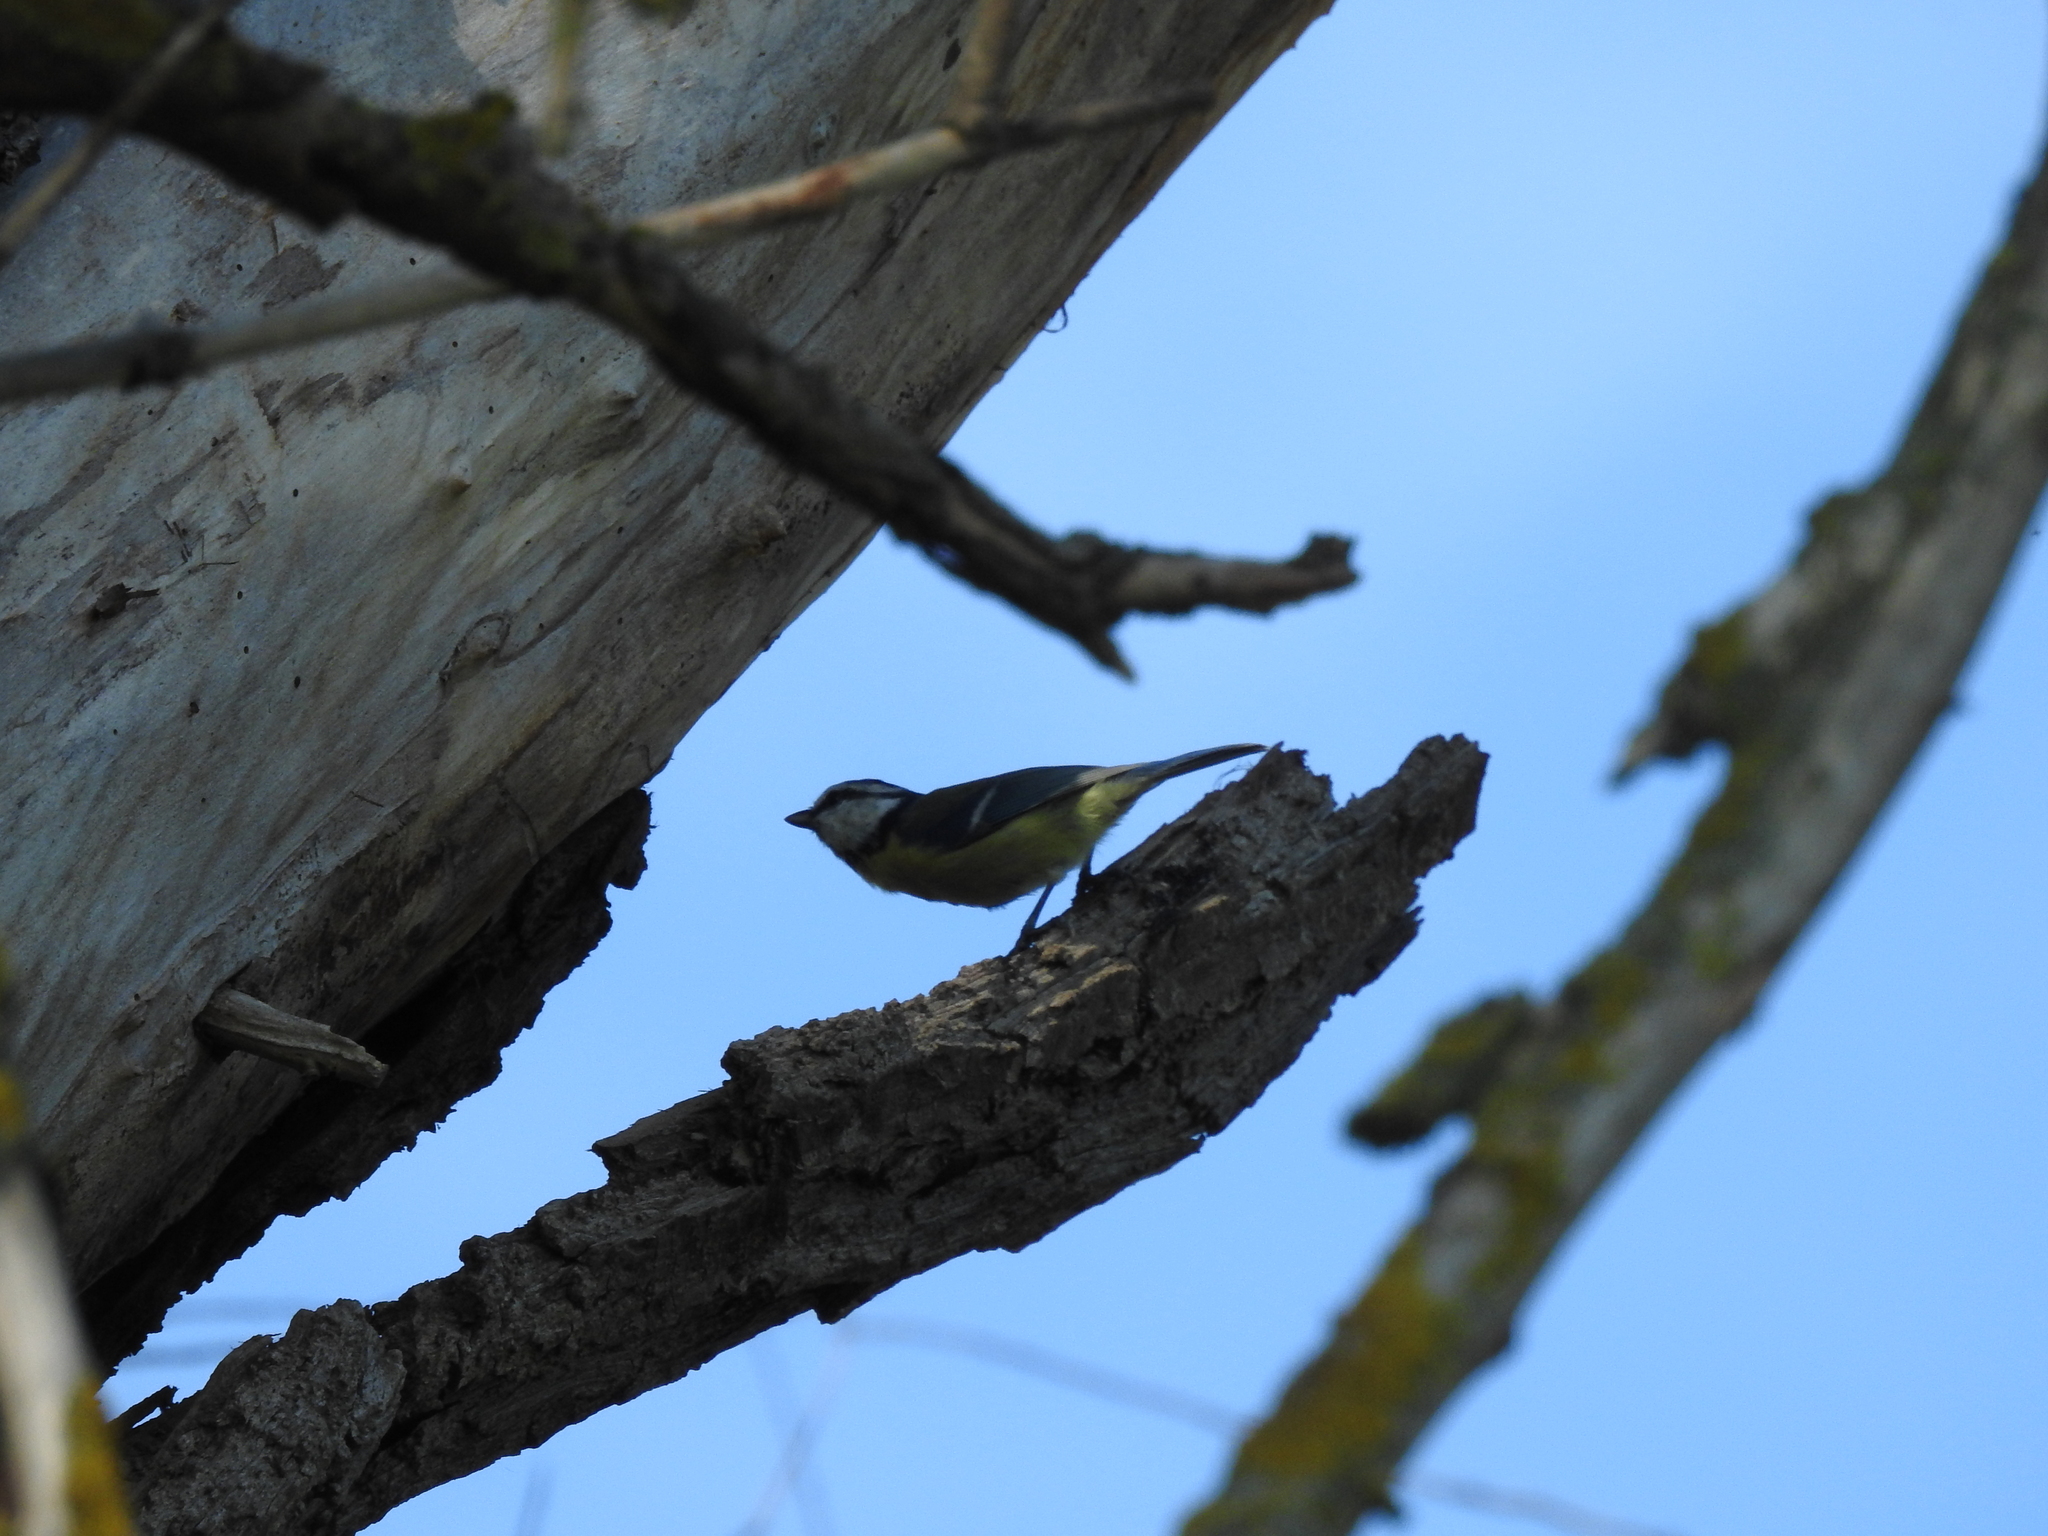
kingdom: Animalia
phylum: Chordata
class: Aves
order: Passeriformes
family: Paridae
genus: Cyanistes
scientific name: Cyanistes caeruleus
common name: Eurasian blue tit
